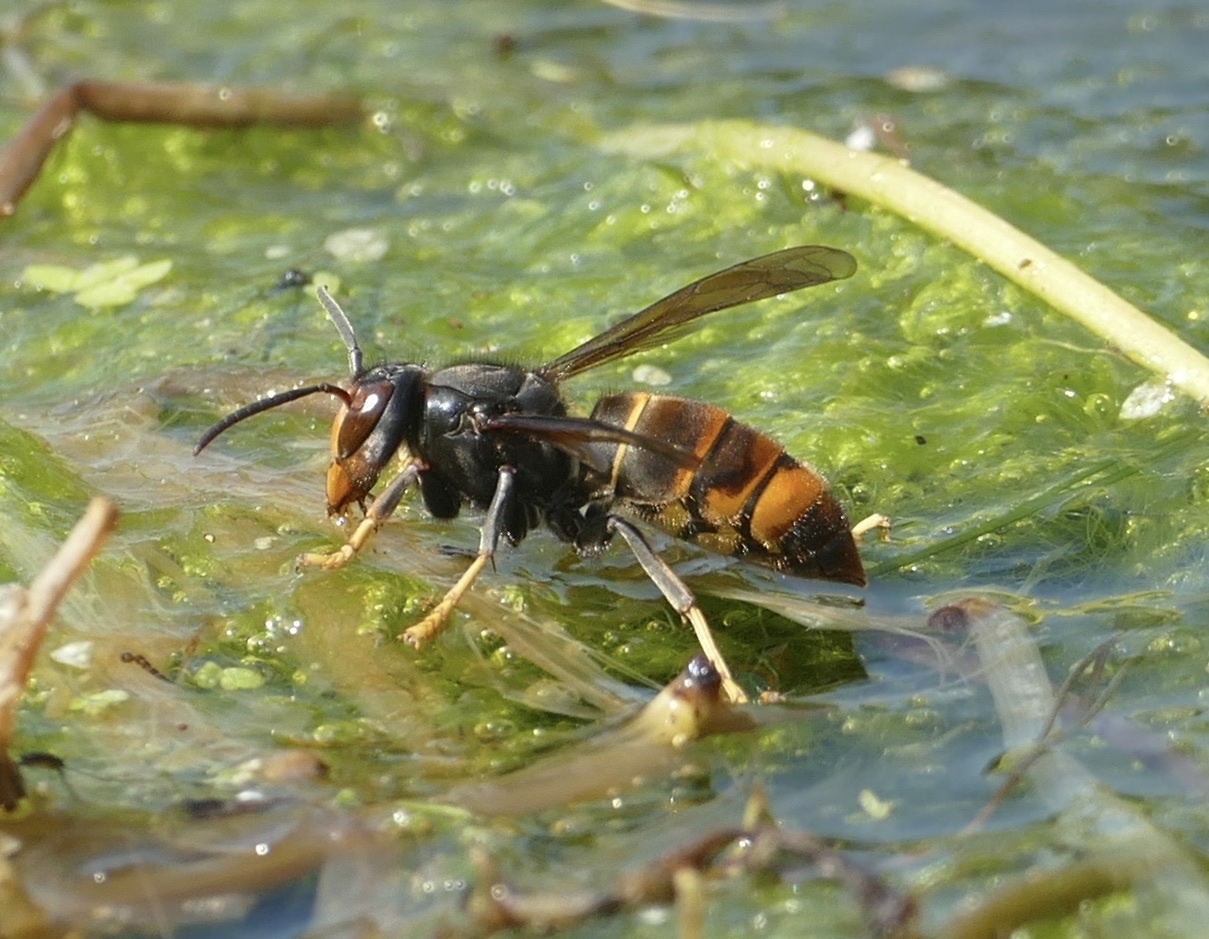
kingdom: Animalia
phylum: Arthropoda
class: Insecta
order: Hymenoptera
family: Vespidae
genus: Vespa
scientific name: Vespa velutina
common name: Asian hornet
